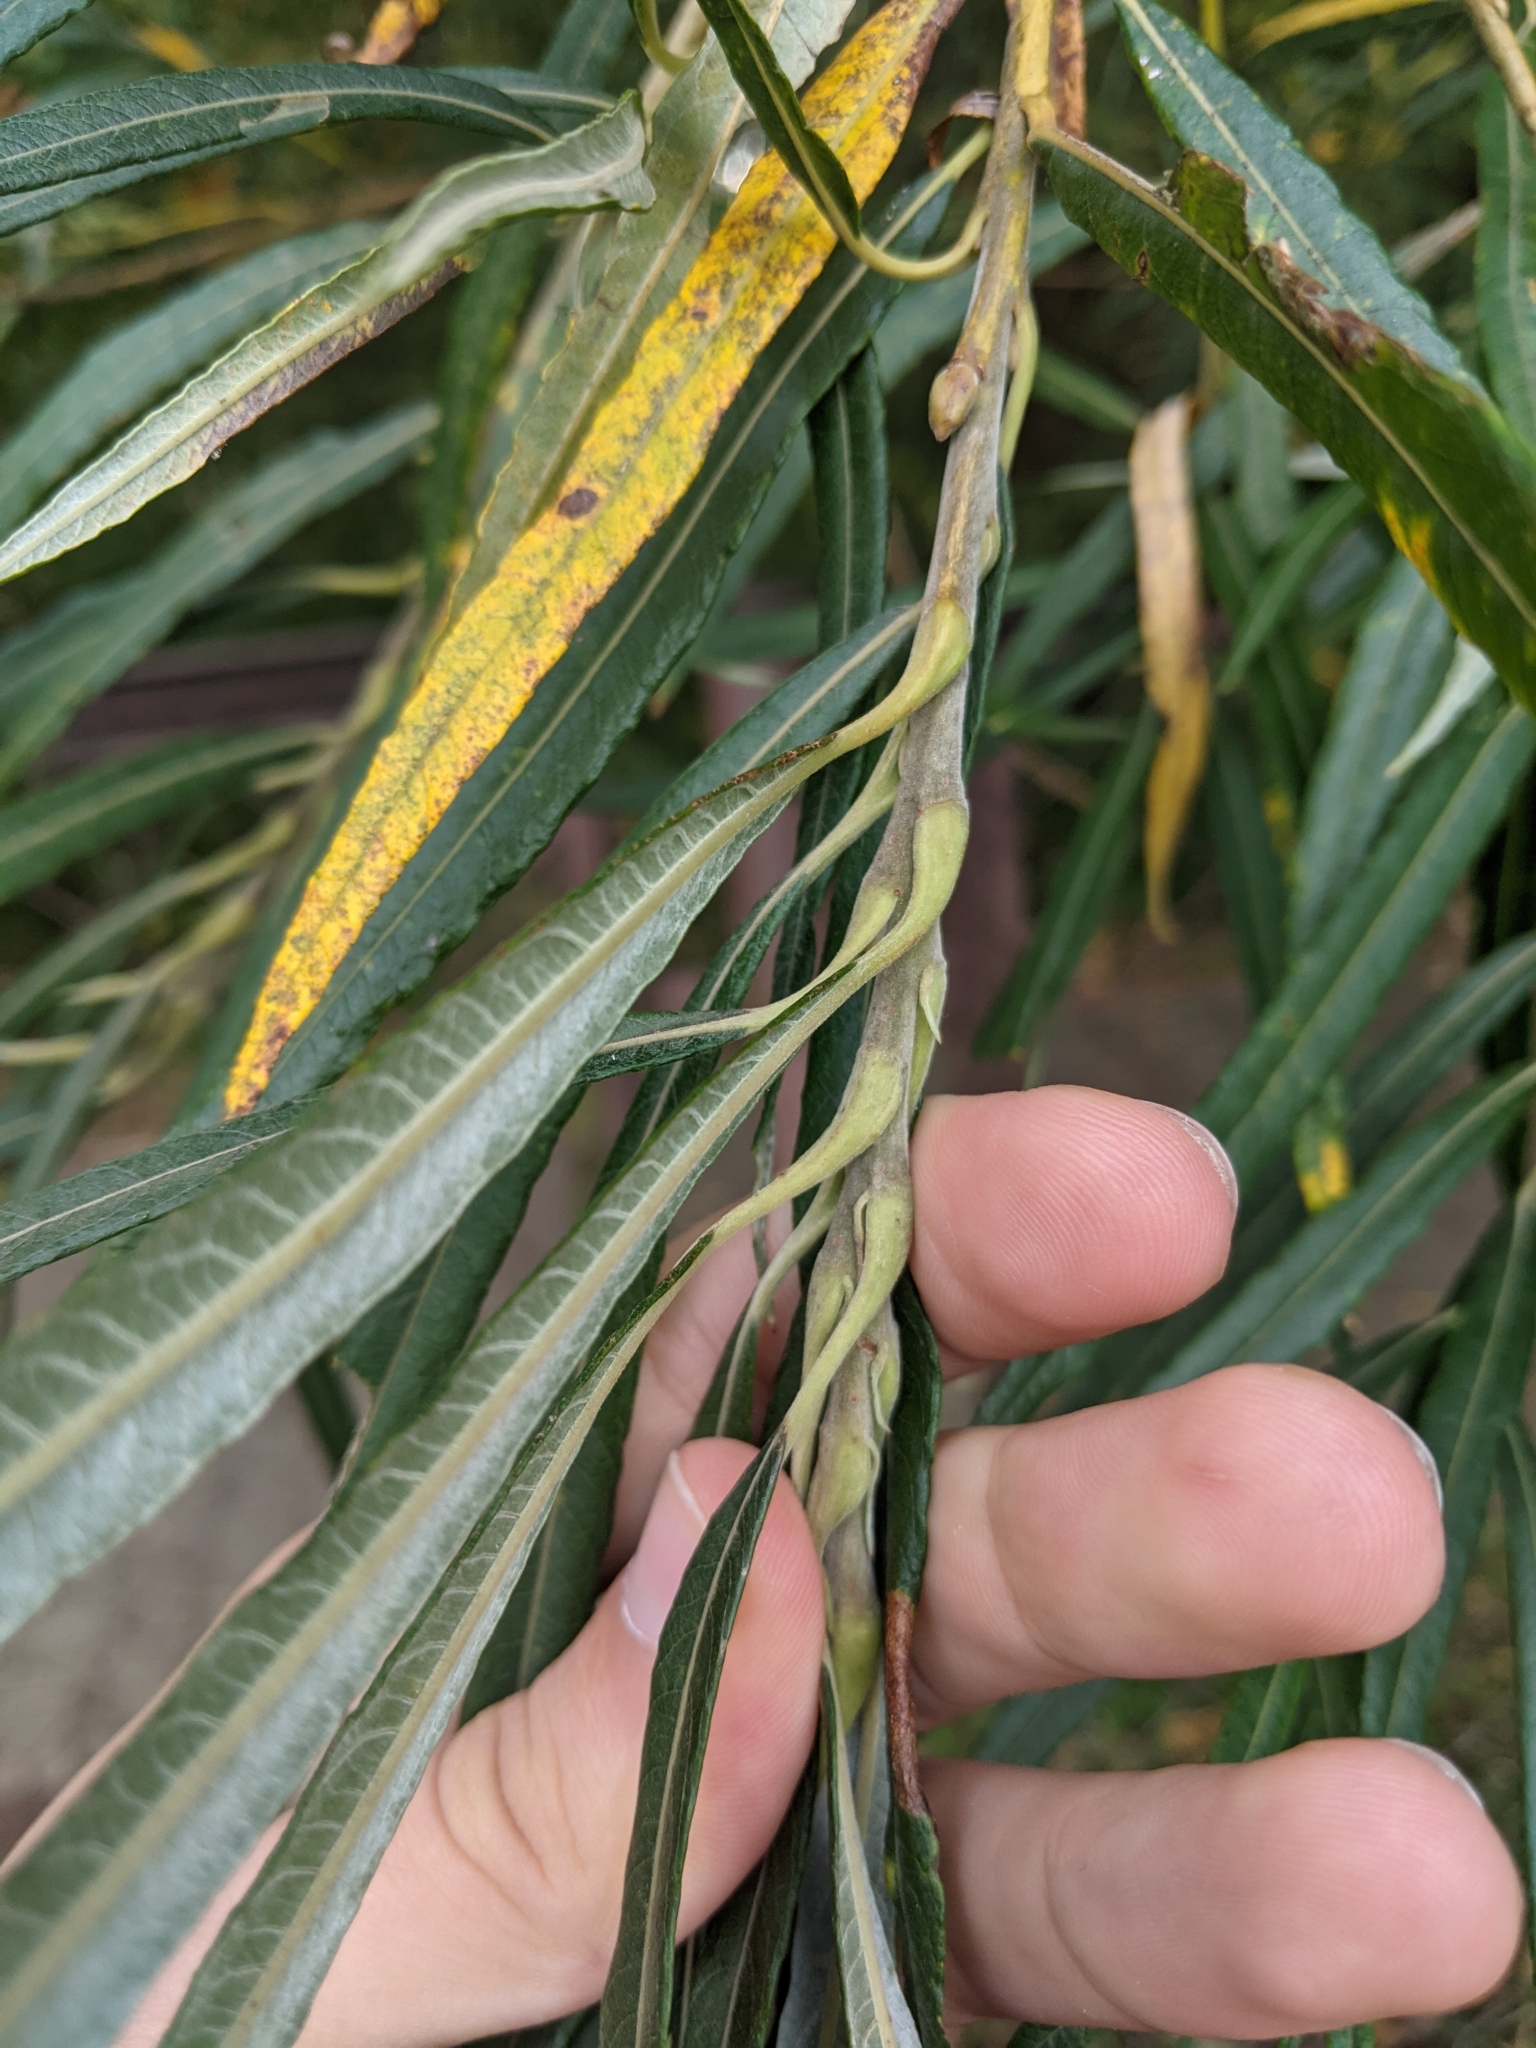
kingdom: Plantae
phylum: Tracheophyta
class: Magnoliopsida
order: Malpighiales
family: Salicaceae
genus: Salix
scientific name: Salix viminalis
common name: Osier
